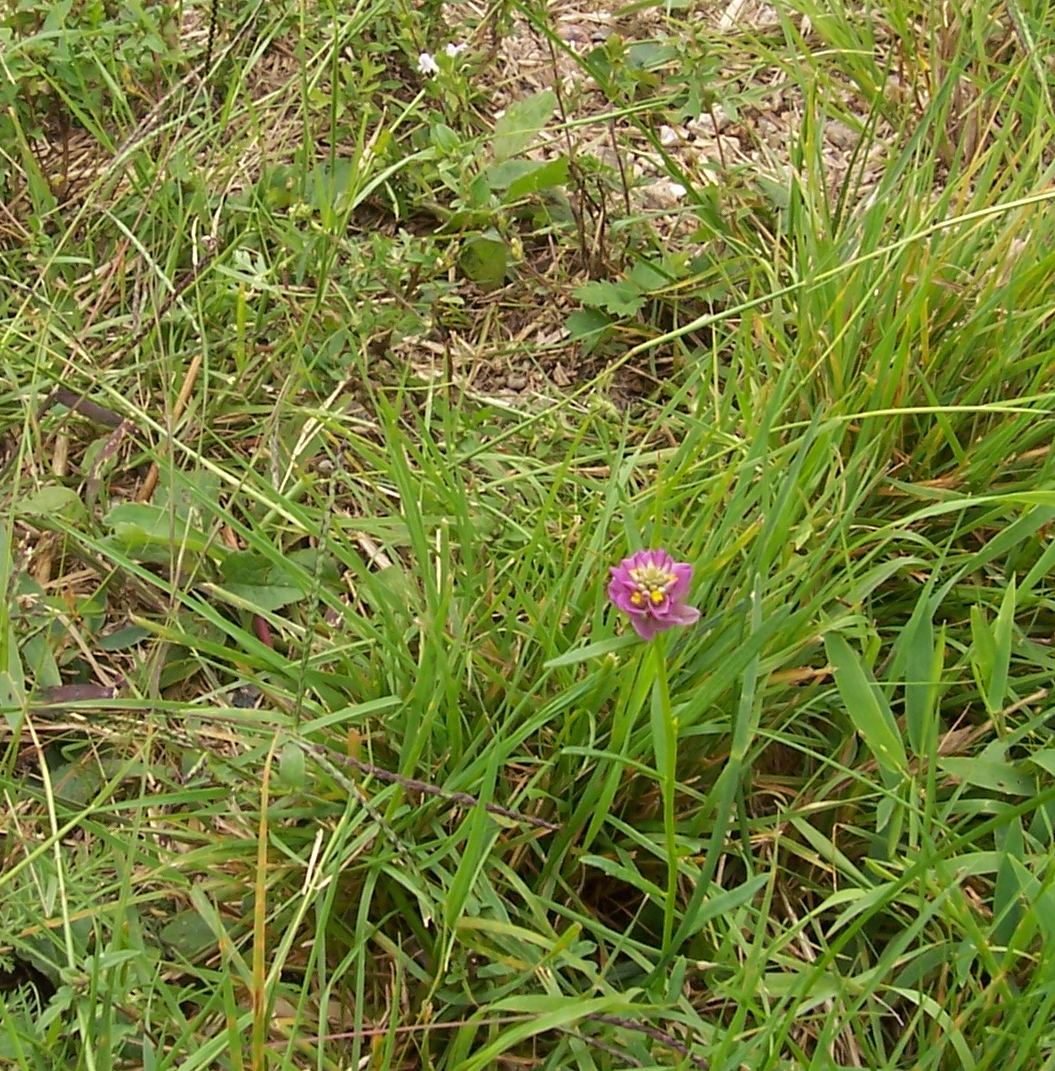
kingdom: Plantae
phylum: Tracheophyta
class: Magnoliopsida
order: Fabales
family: Polygalaceae
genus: Polygala
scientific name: Polygala sanguinea
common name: Blood milkwort
